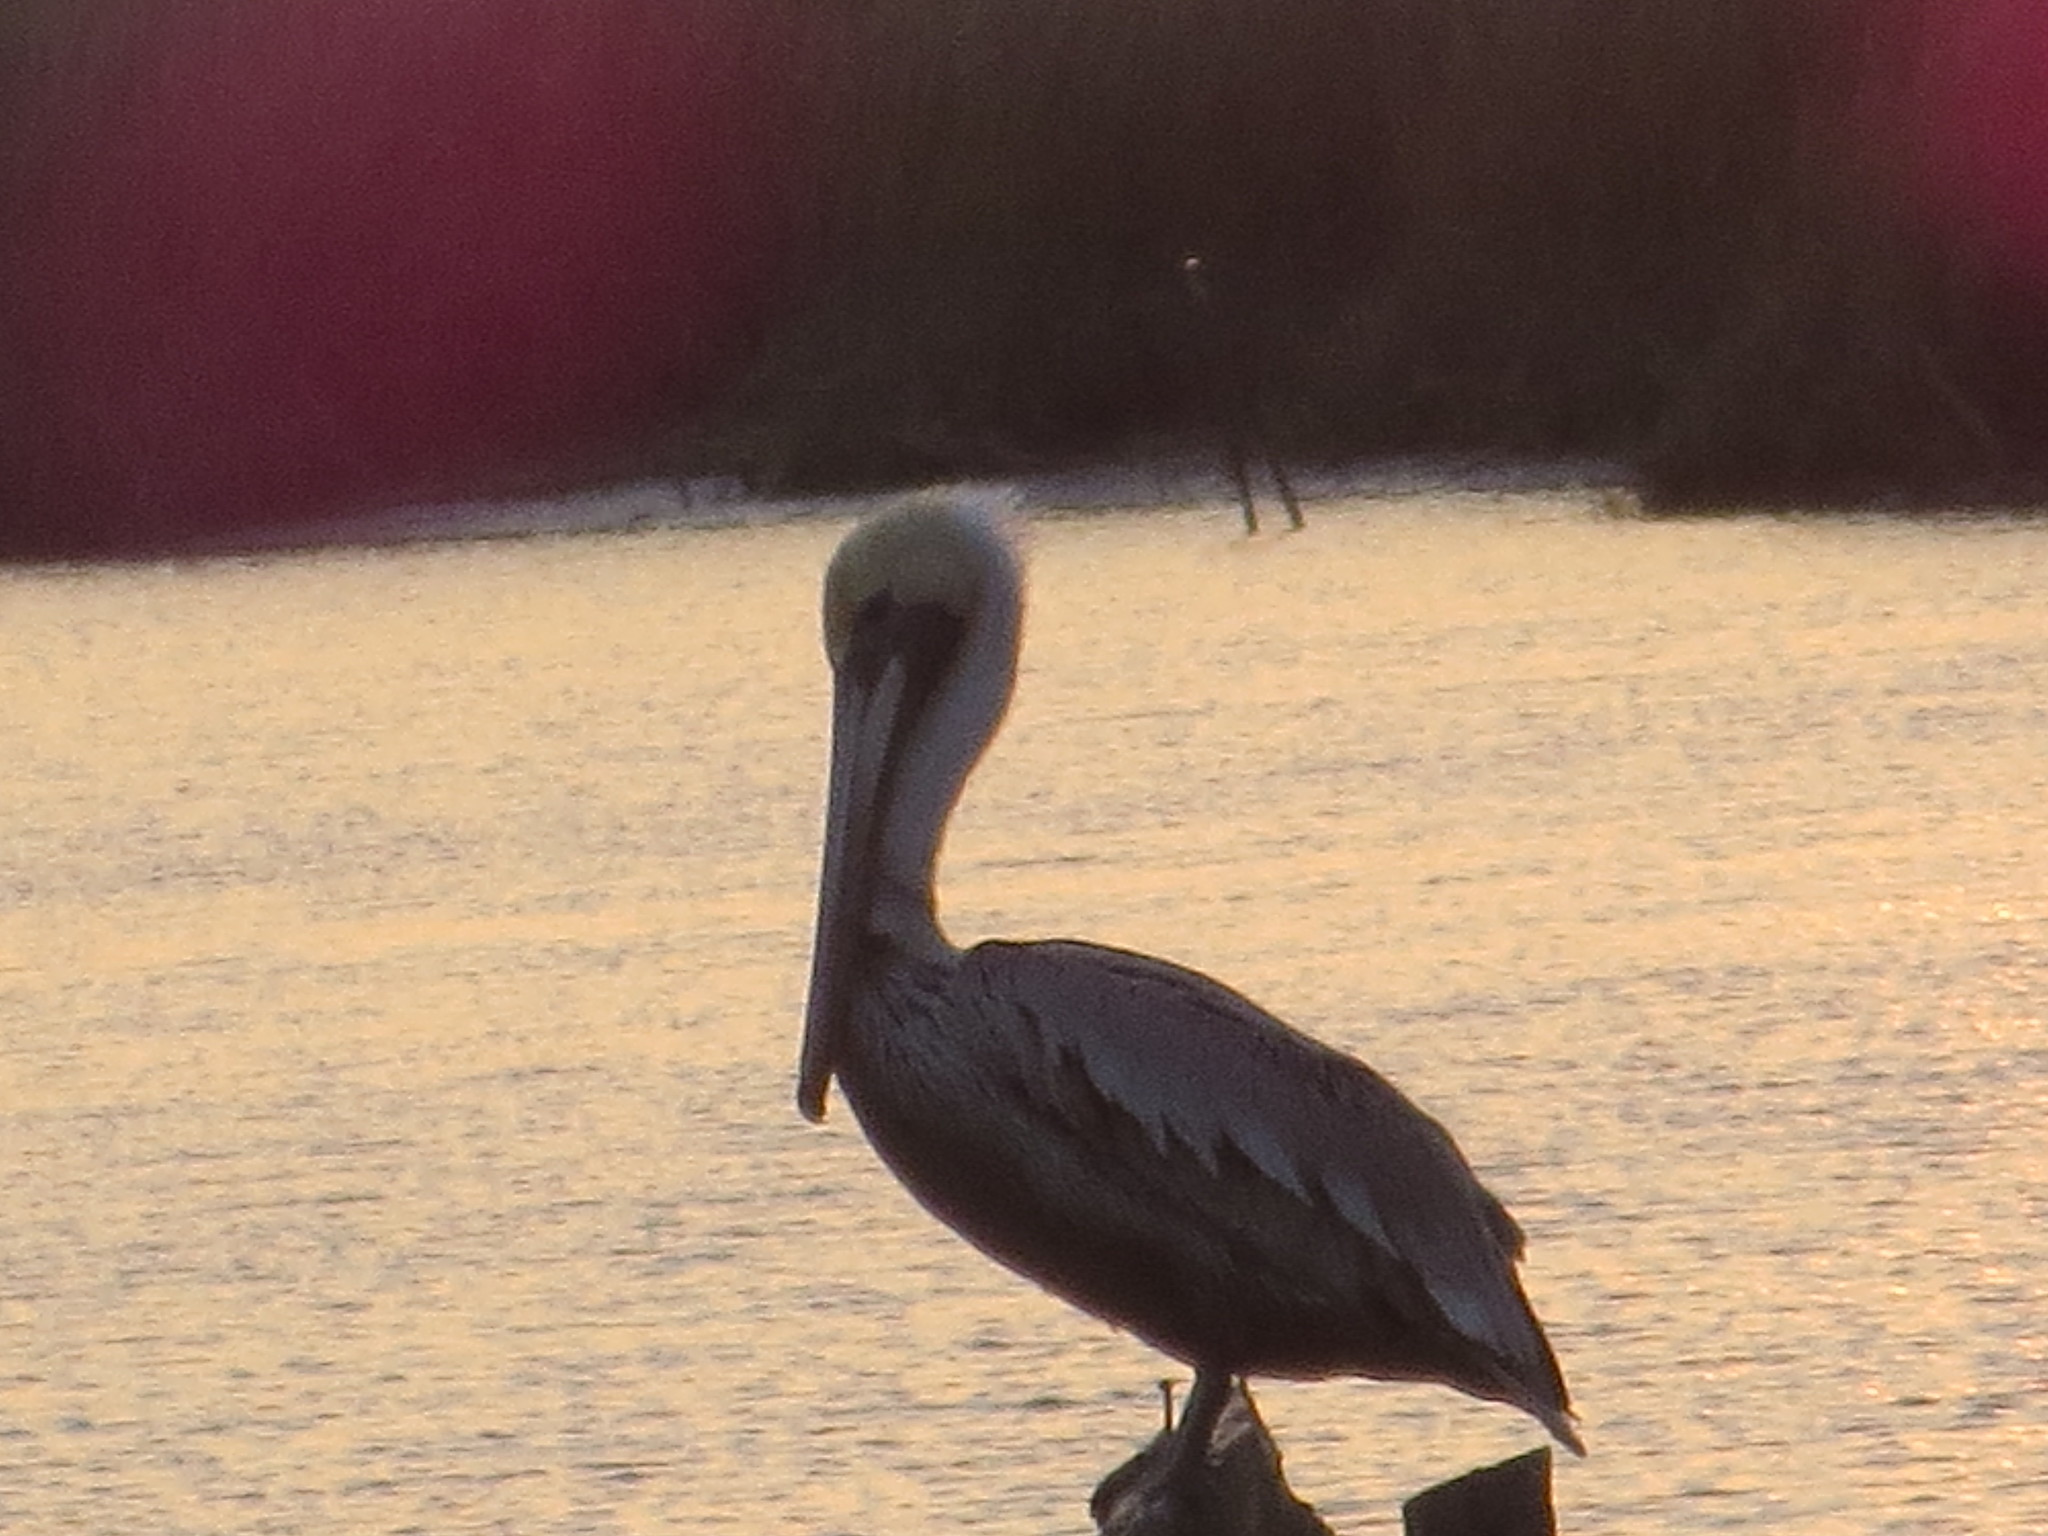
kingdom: Animalia
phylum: Chordata
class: Aves
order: Pelecaniformes
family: Pelecanidae
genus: Pelecanus
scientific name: Pelecanus occidentalis
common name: Brown pelican
